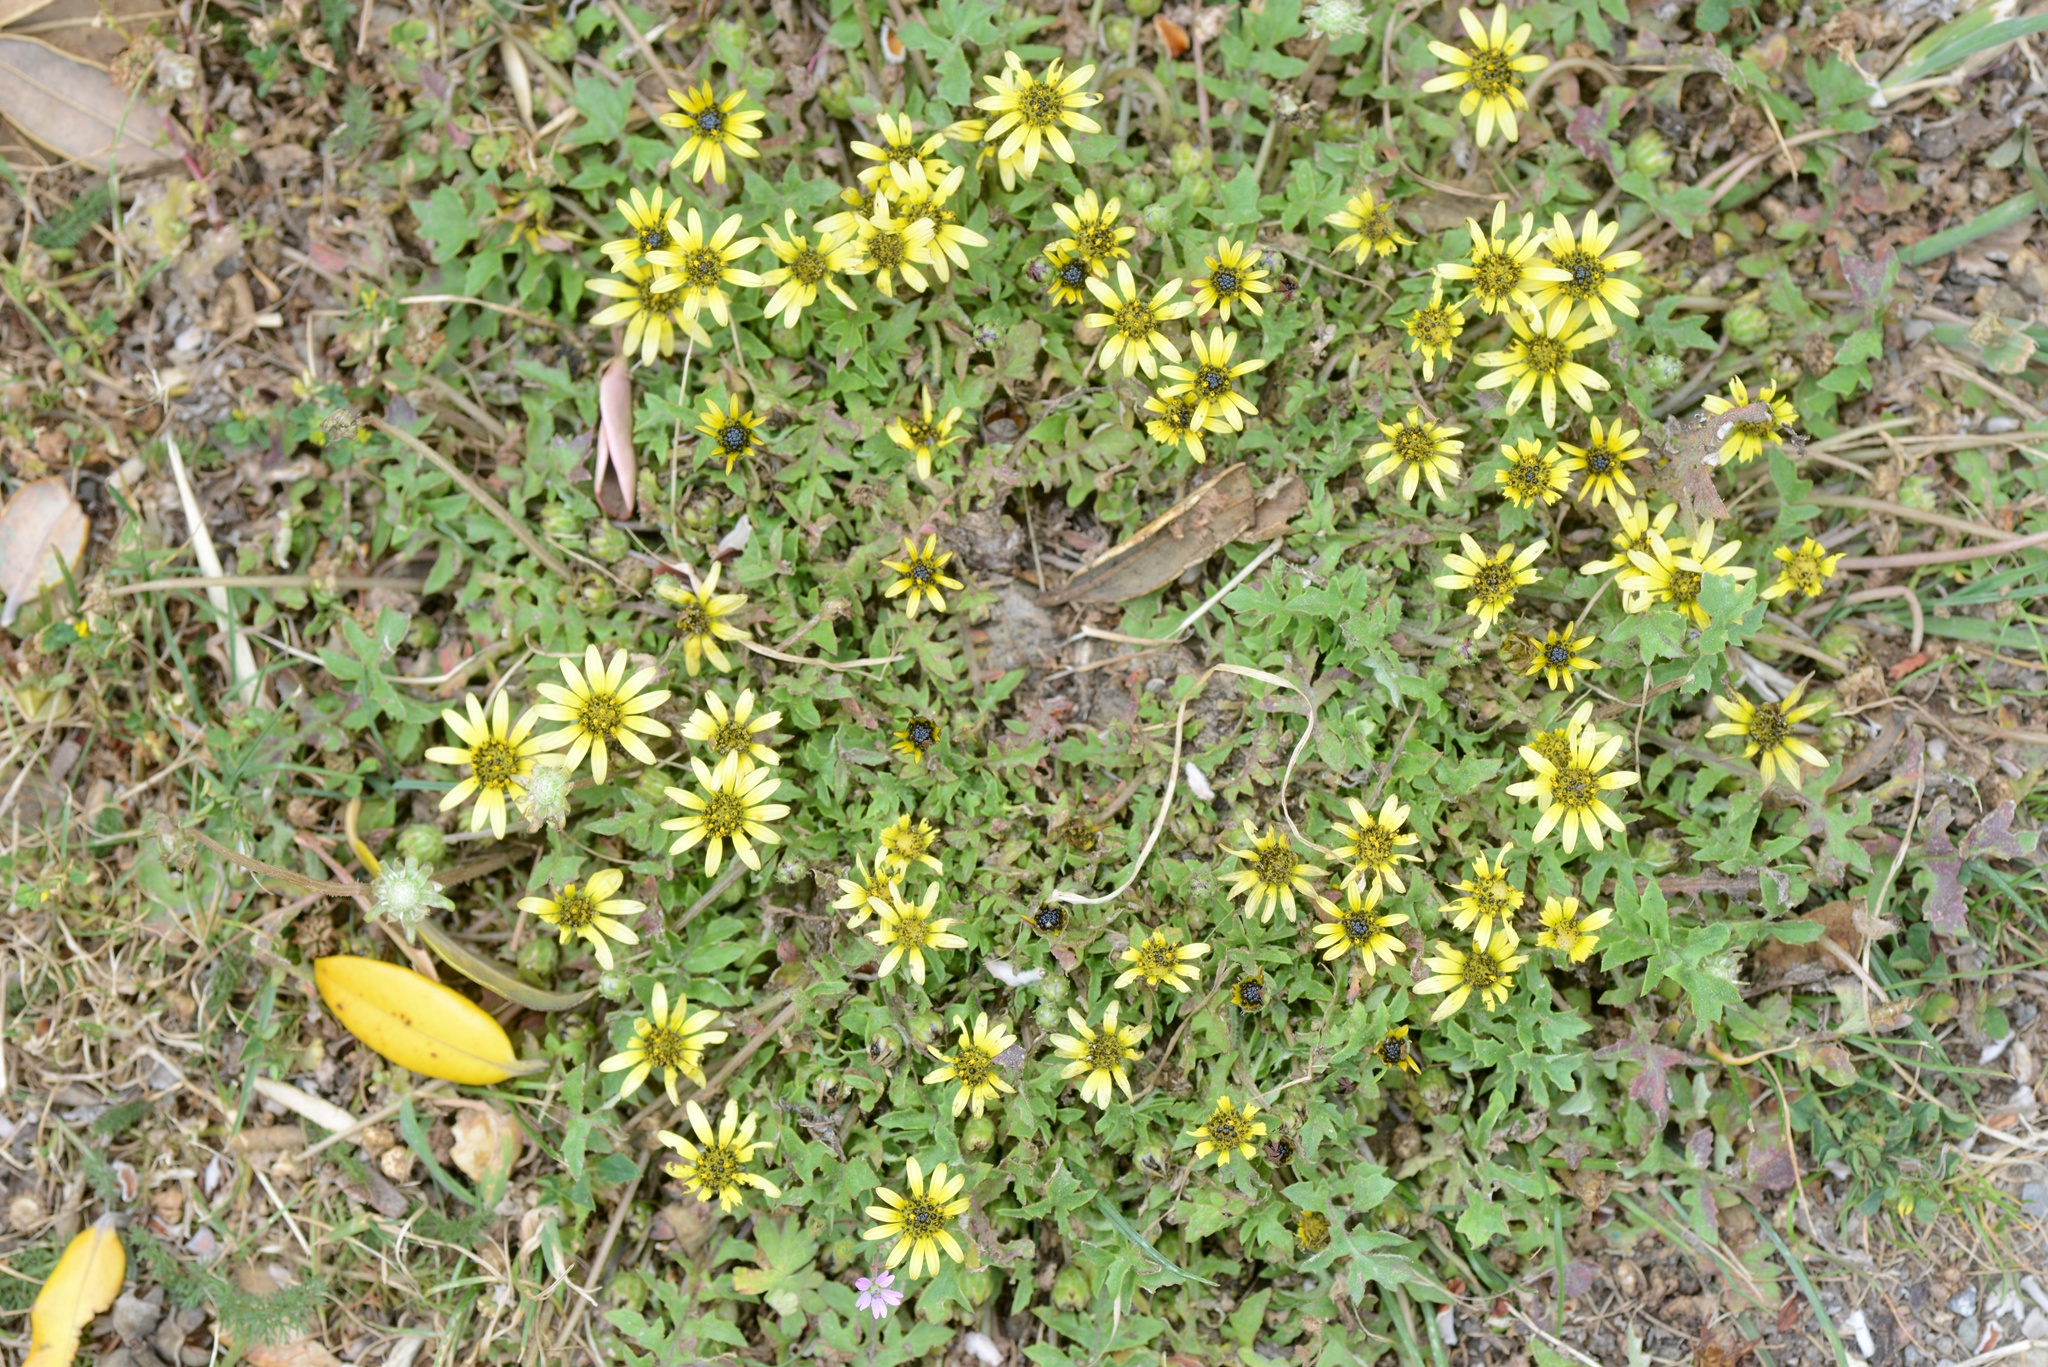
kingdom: Plantae
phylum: Tracheophyta
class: Magnoliopsida
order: Asterales
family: Asteraceae
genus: Arctotheca
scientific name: Arctotheca calendula
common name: Capeweed
